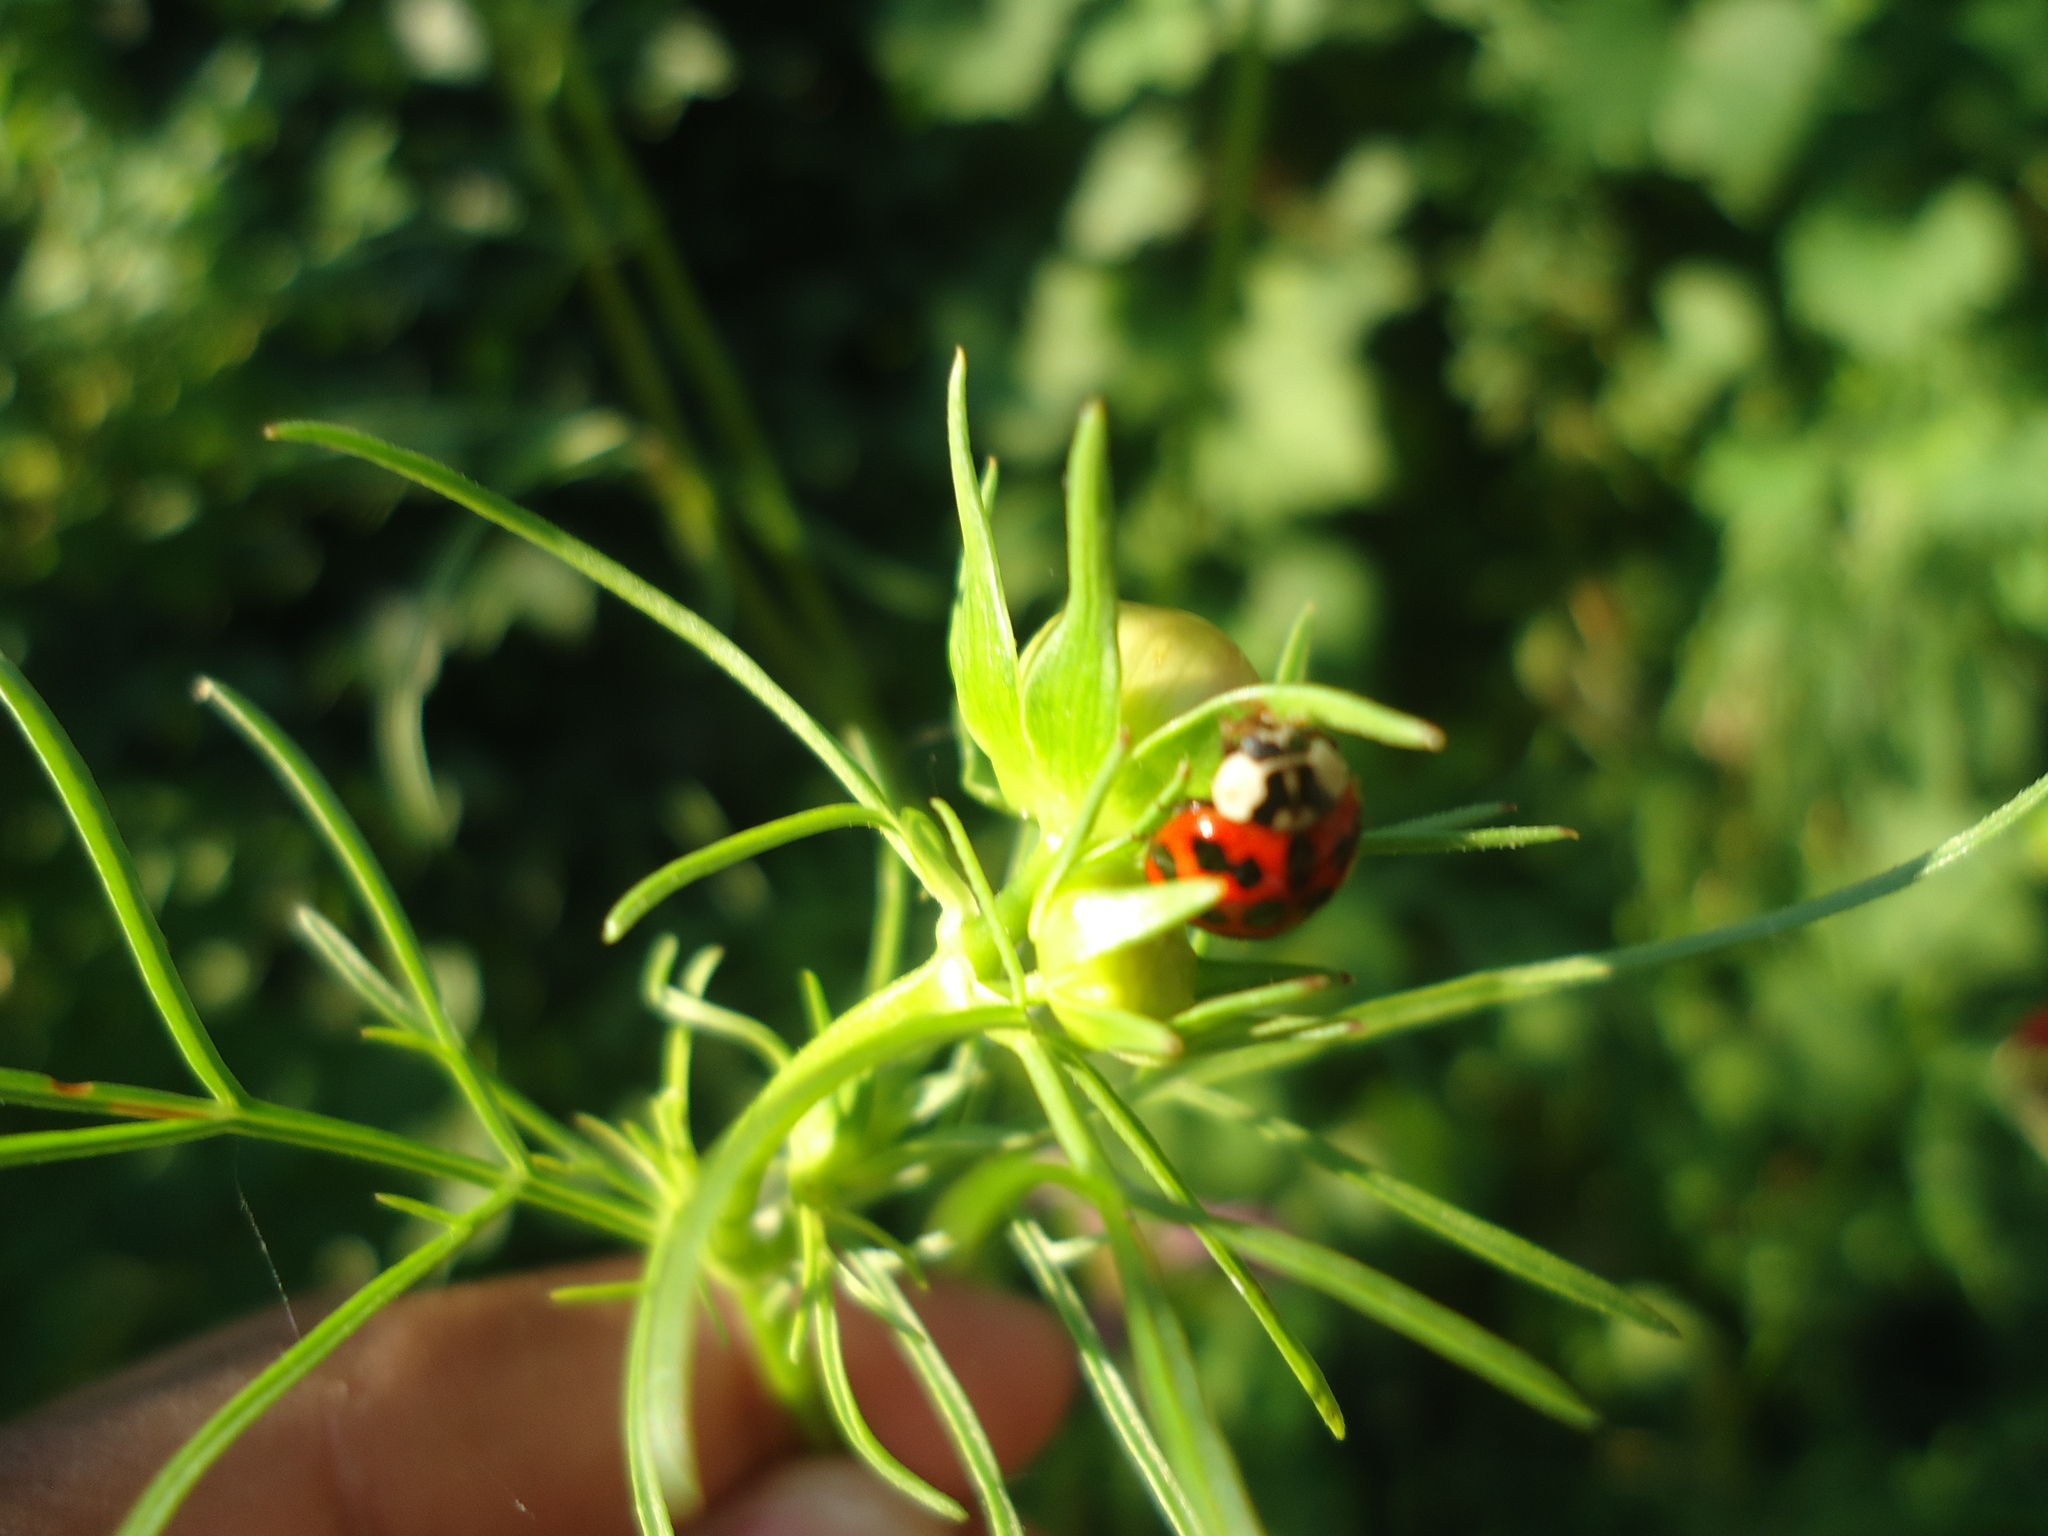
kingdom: Animalia
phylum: Arthropoda
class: Insecta
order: Coleoptera
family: Coccinellidae
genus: Harmonia
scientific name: Harmonia axyridis
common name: Harlequin ladybird
